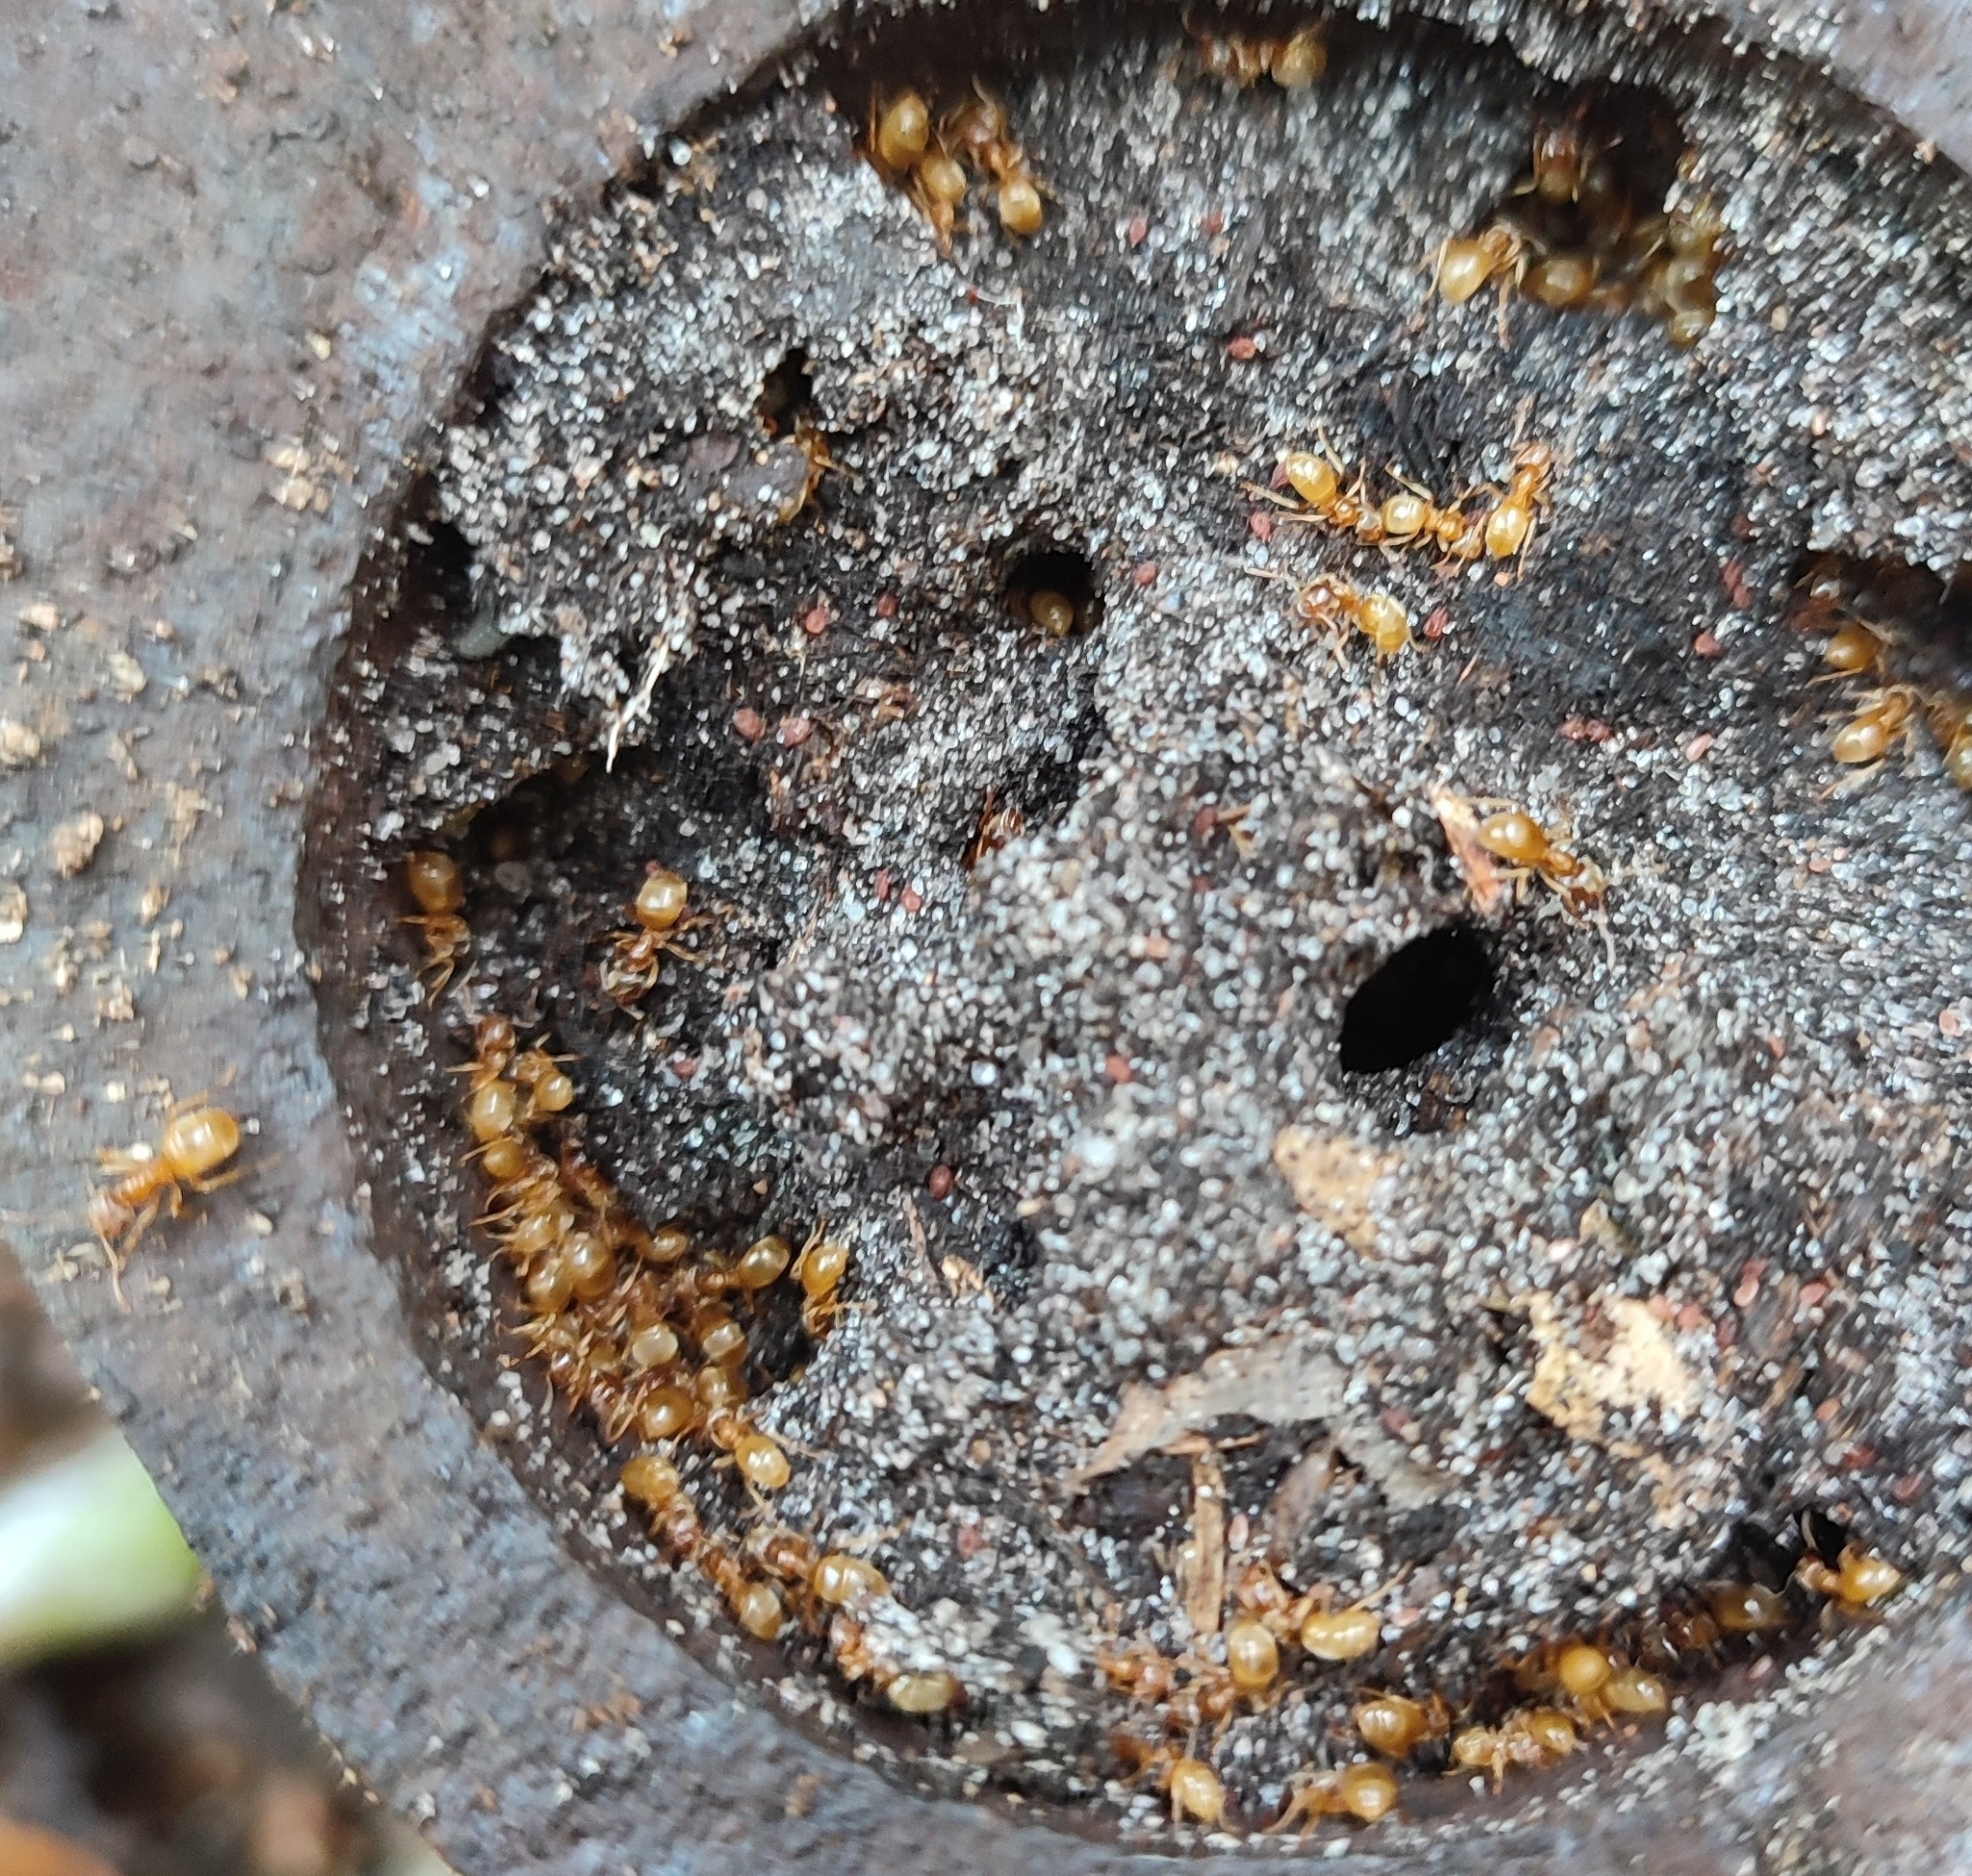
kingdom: Animalia
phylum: Arthropoda
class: Insecta
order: Hymenoptera
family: Formicidae
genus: Lasius
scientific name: Lasius flavus
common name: Blond field ant
